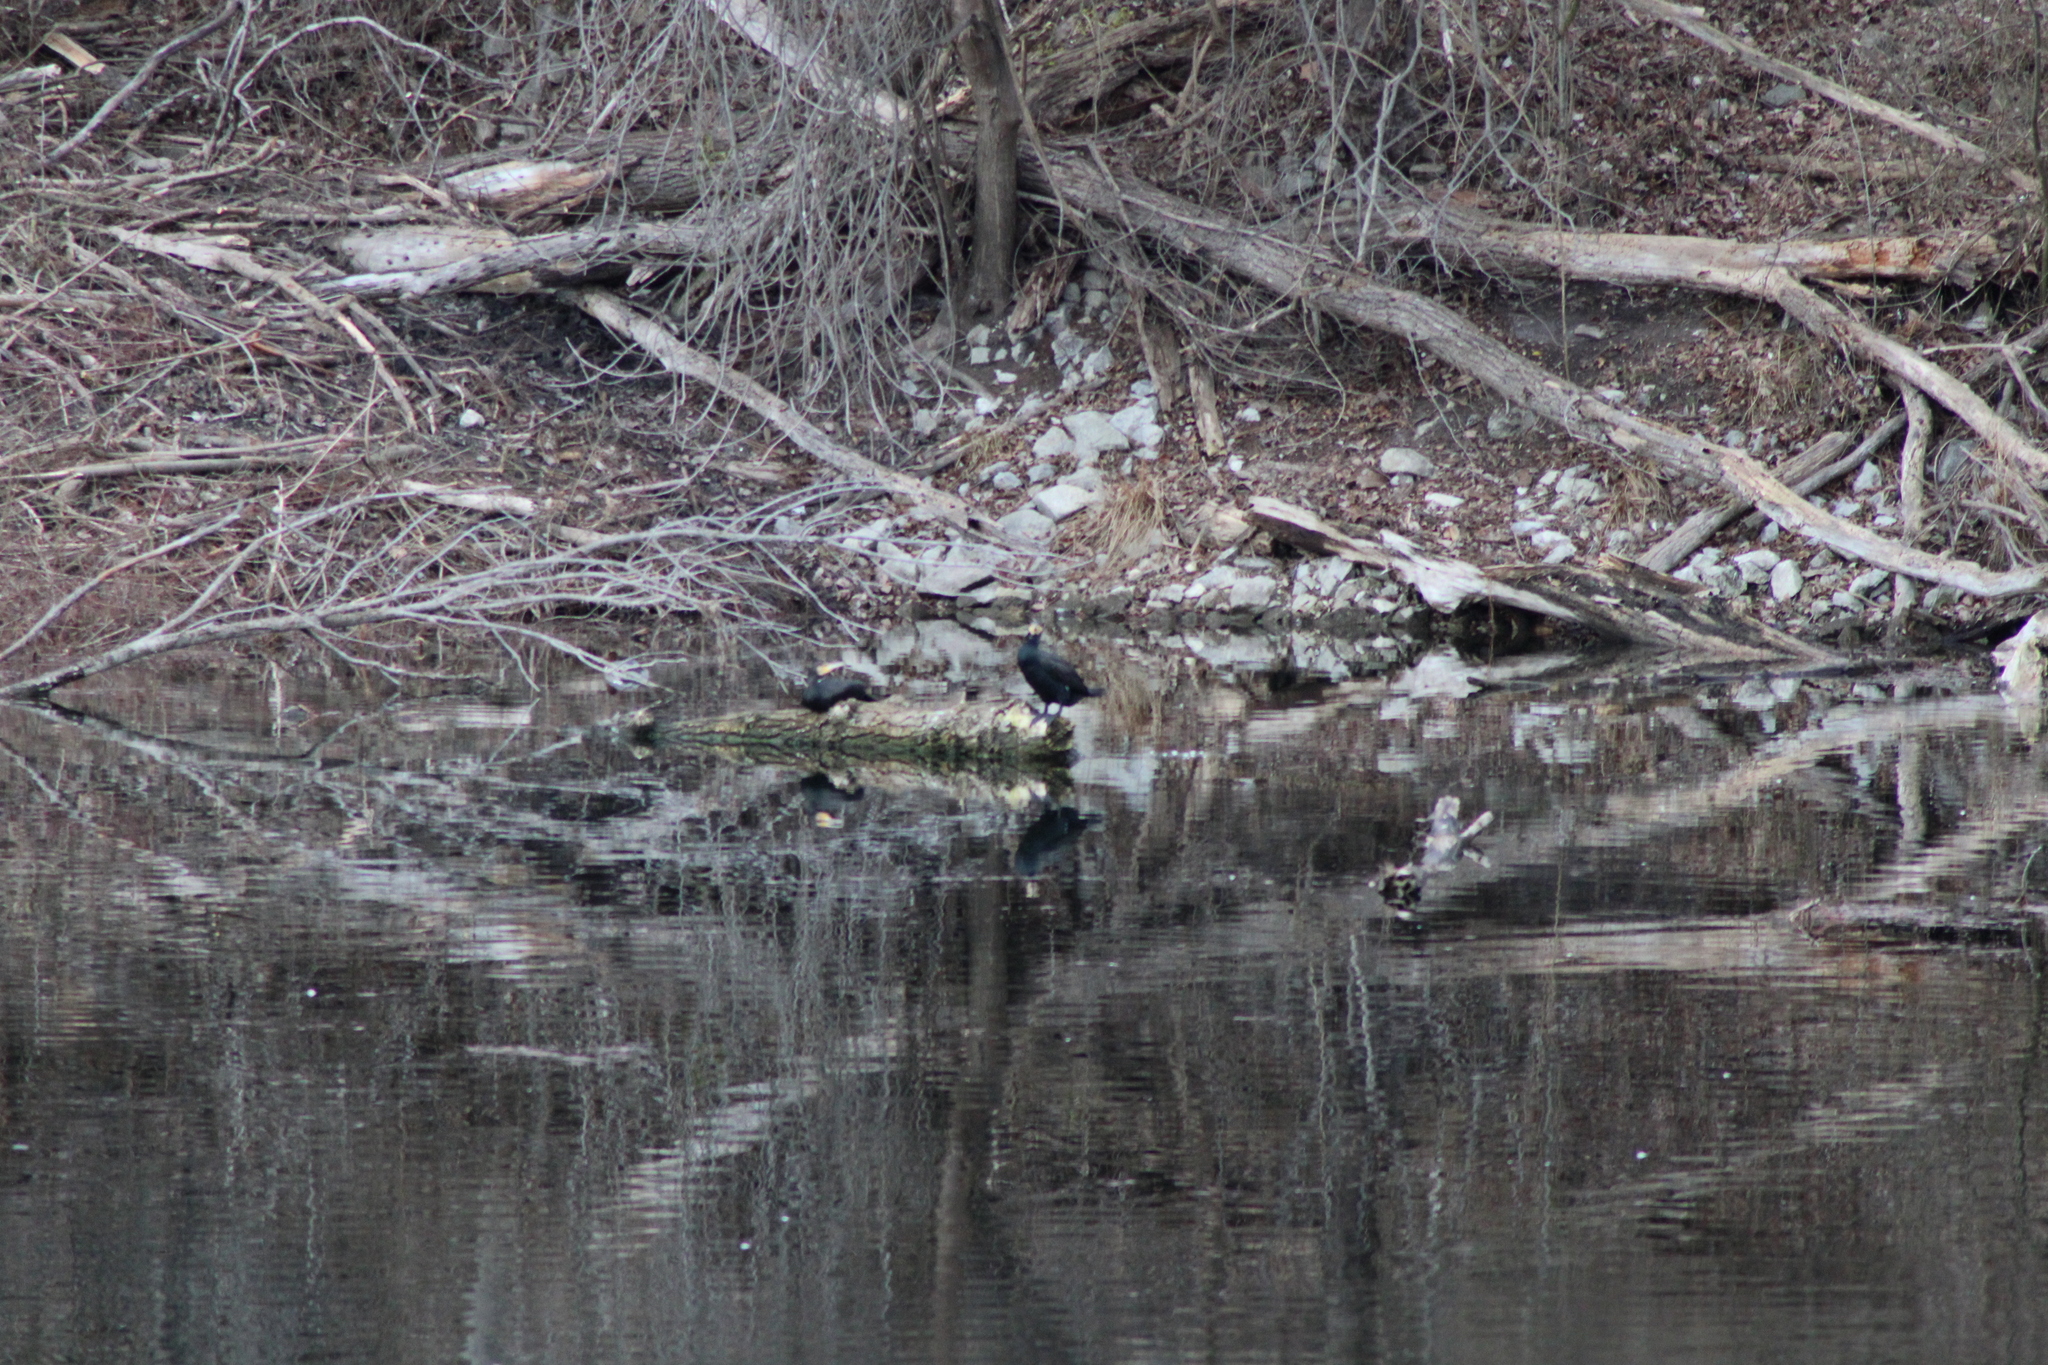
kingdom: Animalia
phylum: Chordata
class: Aves
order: Suliformes
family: Phalacrocoracidae
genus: Phalacrocorax
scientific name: Phalacrocorax carbo
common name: Great cormorant
